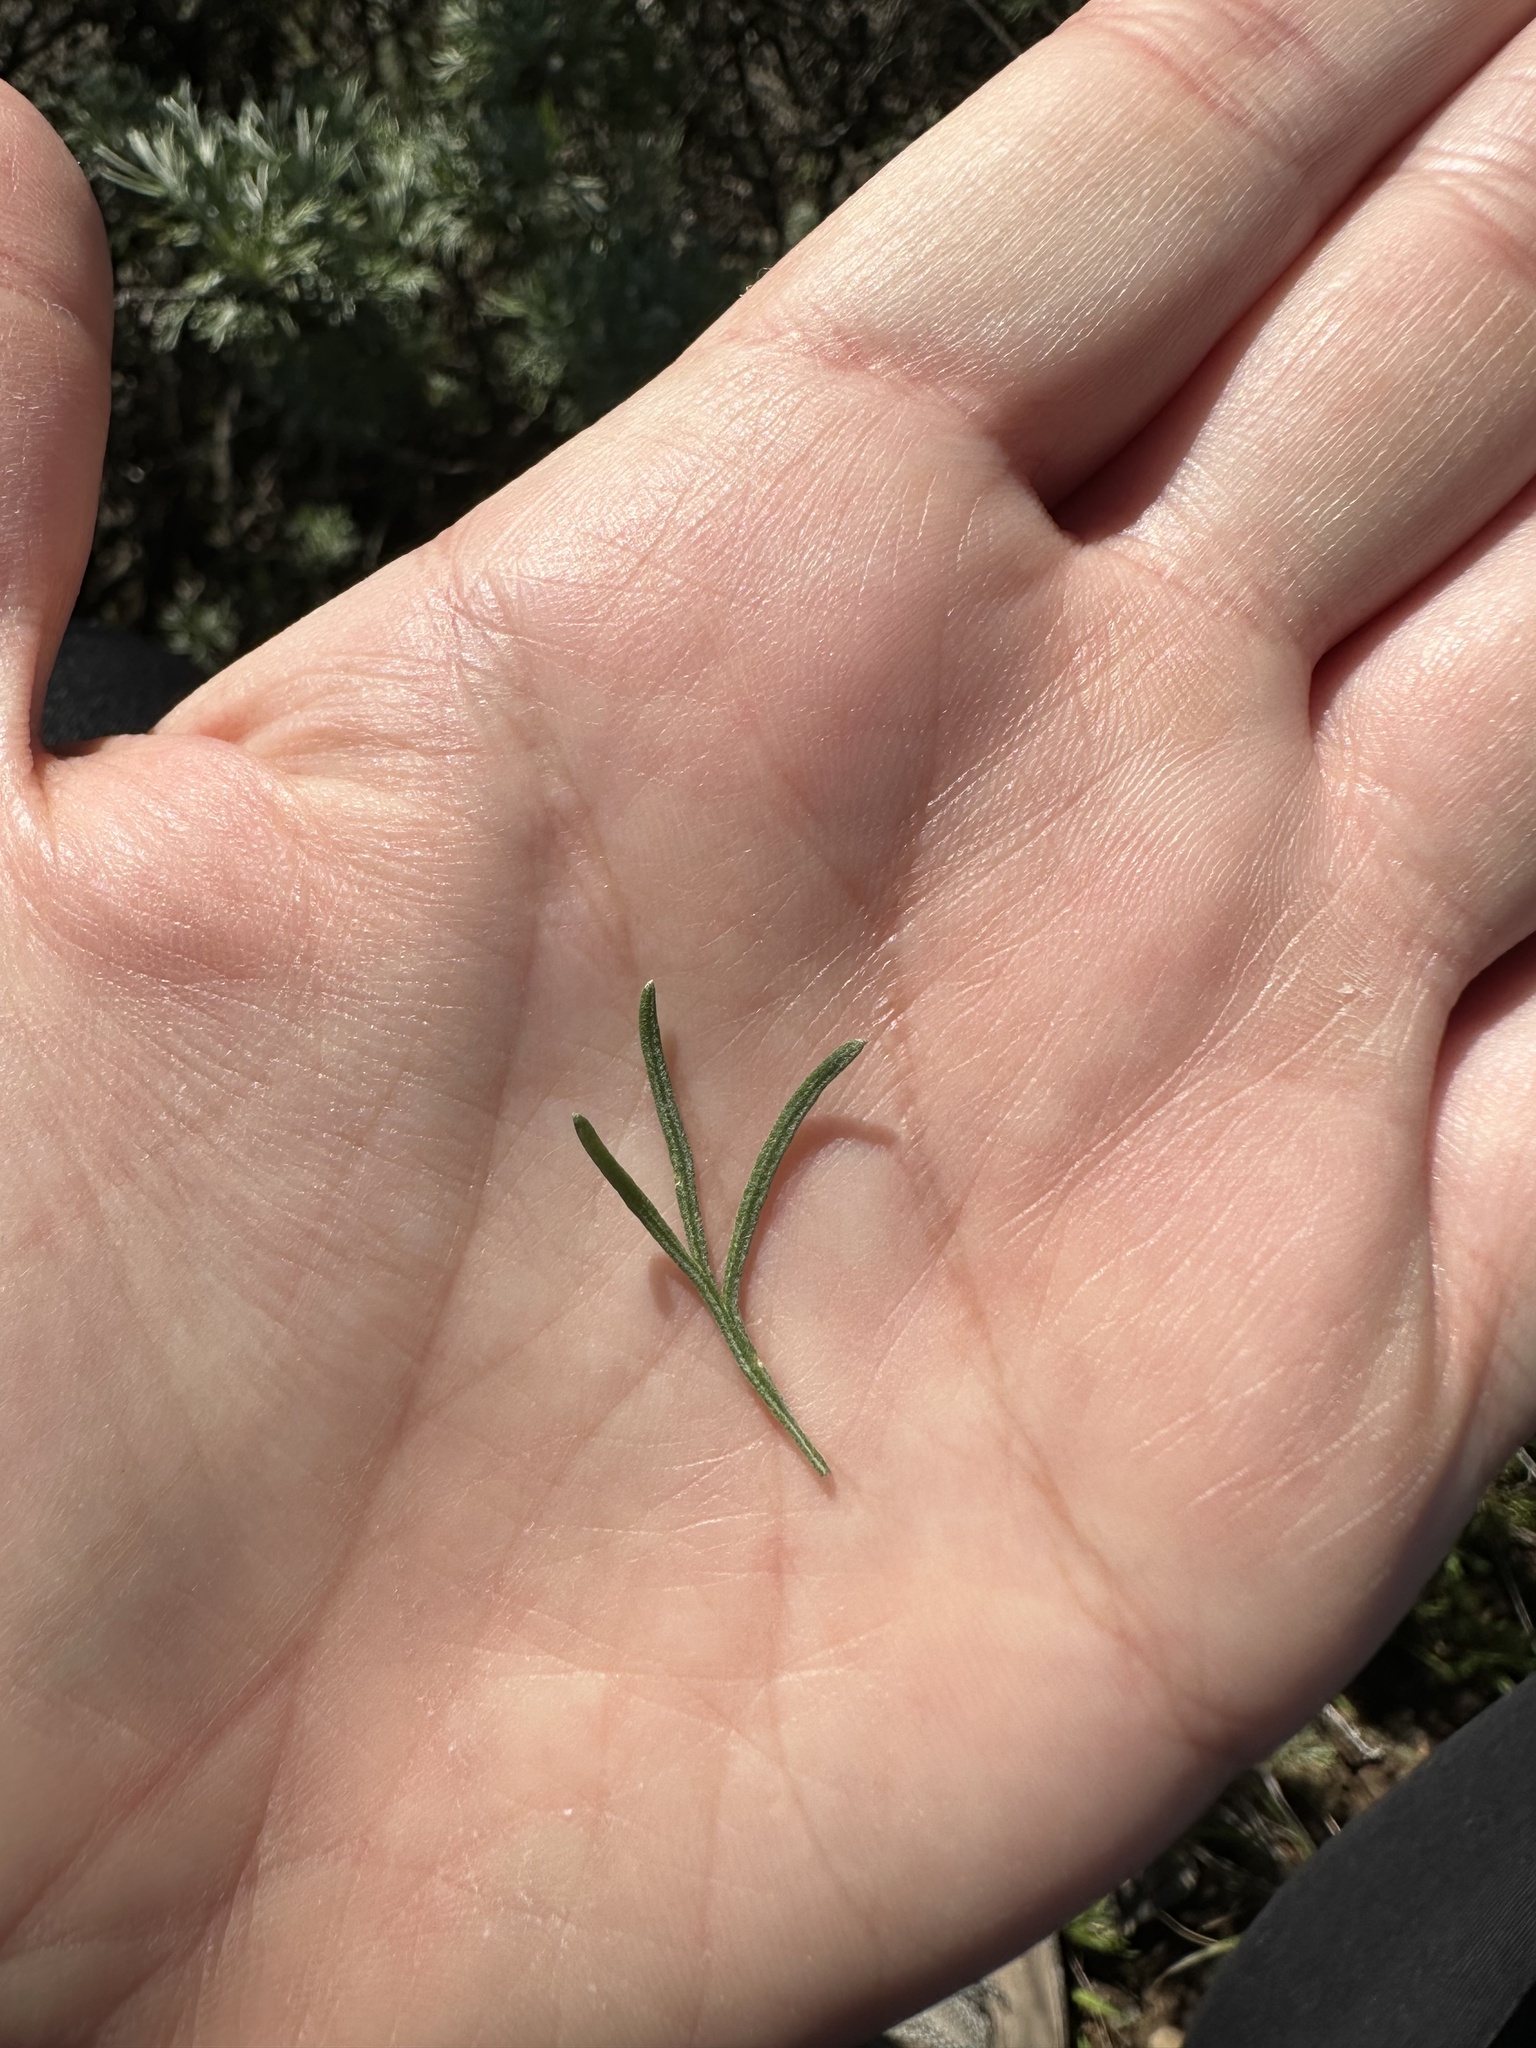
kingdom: Plantae
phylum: Tracheophyta
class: Magnoliopsida
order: Asterales
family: Asteraceae
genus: Artemisia
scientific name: Artemisia californica
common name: California sagebrush
